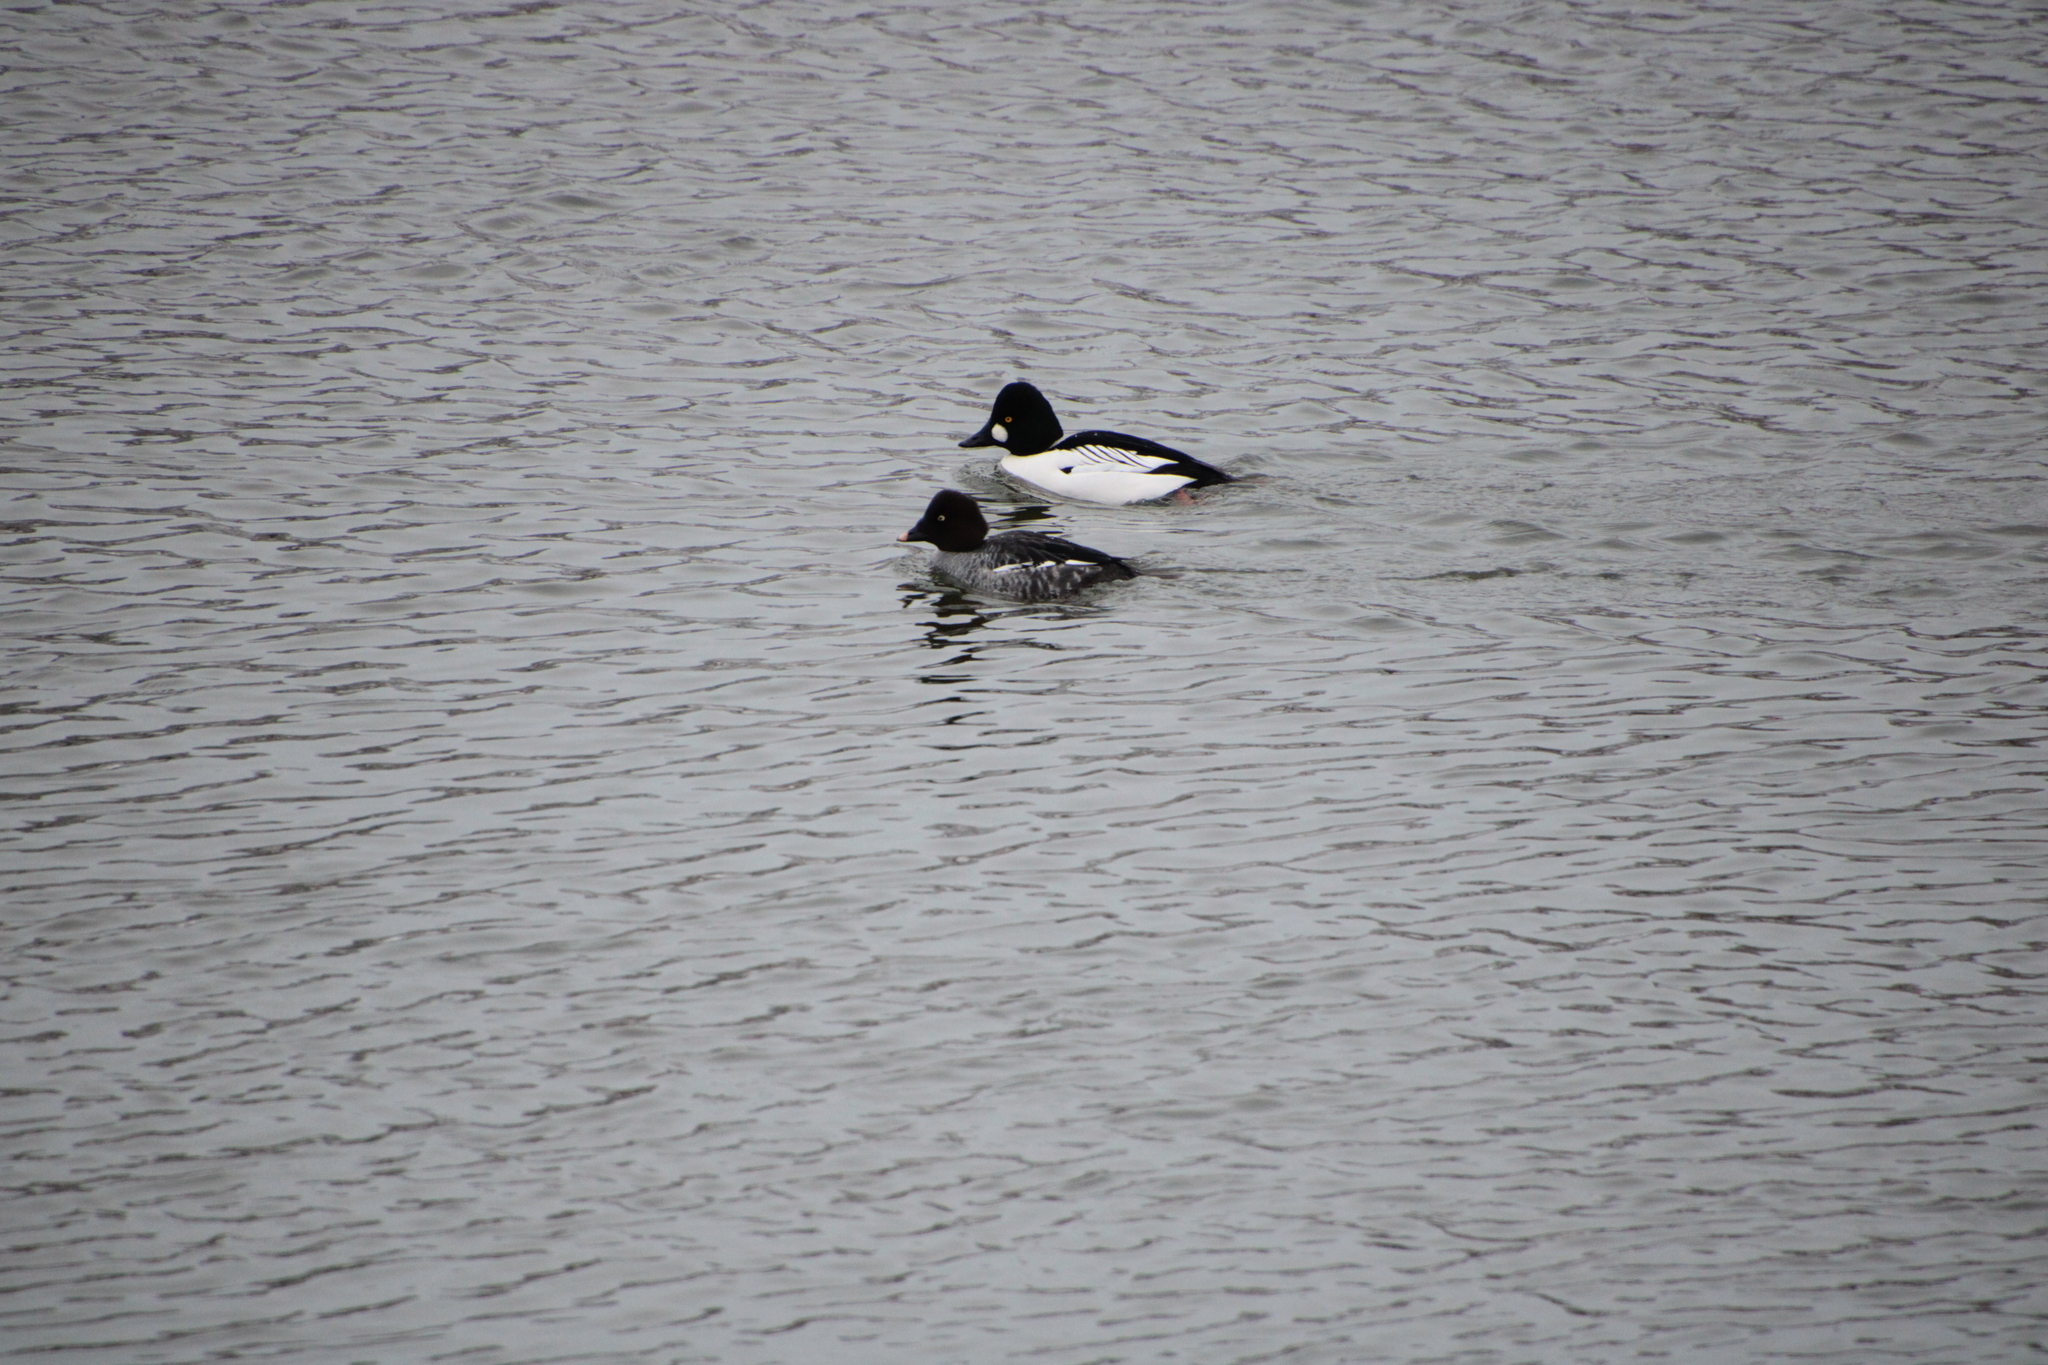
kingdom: Animalia
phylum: Chordata
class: Aves
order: Anseriformes
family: Anatidae
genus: Bucephala
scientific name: Bucephala clangula
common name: Common goldeneye
